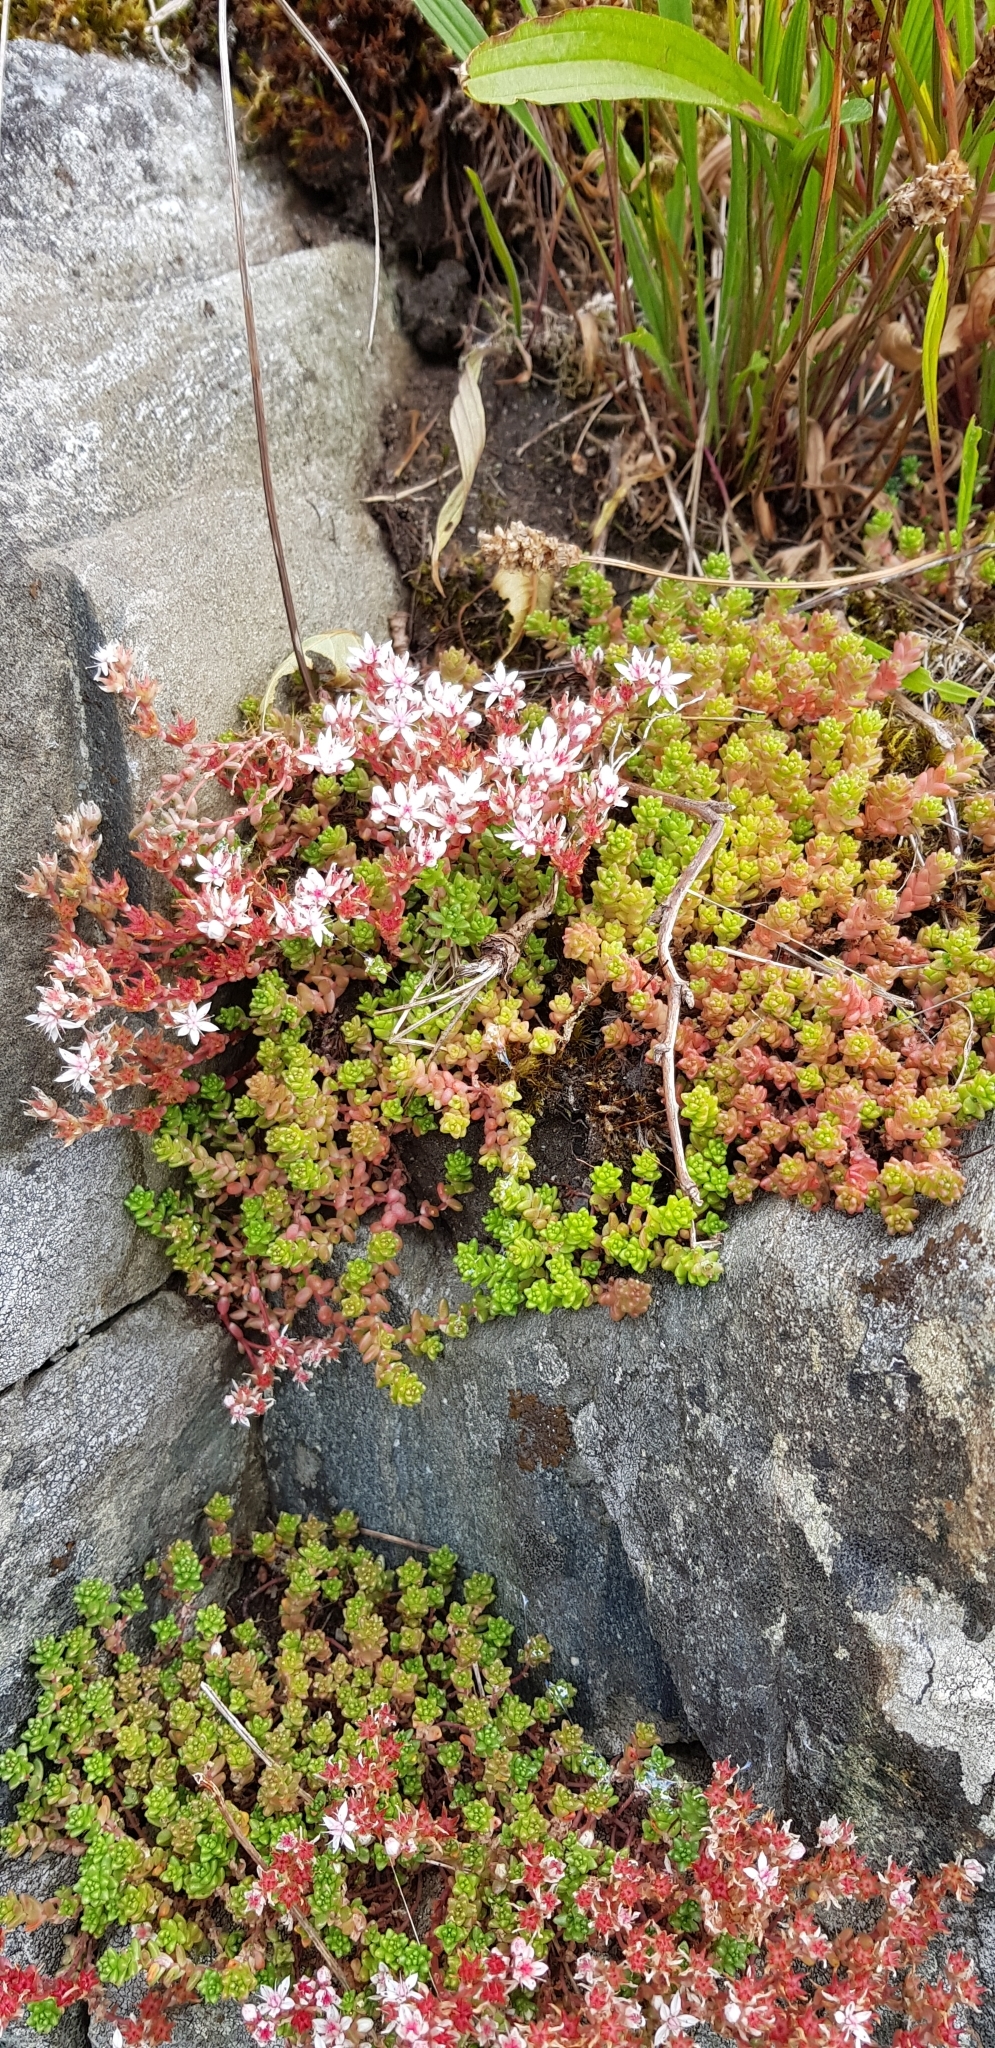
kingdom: Plantae
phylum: Tracheophyta
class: Magnoliopsida
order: Saxifragales
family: Crassulaceae
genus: Sedum
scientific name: Sedum anglicum
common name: English stonecrop
